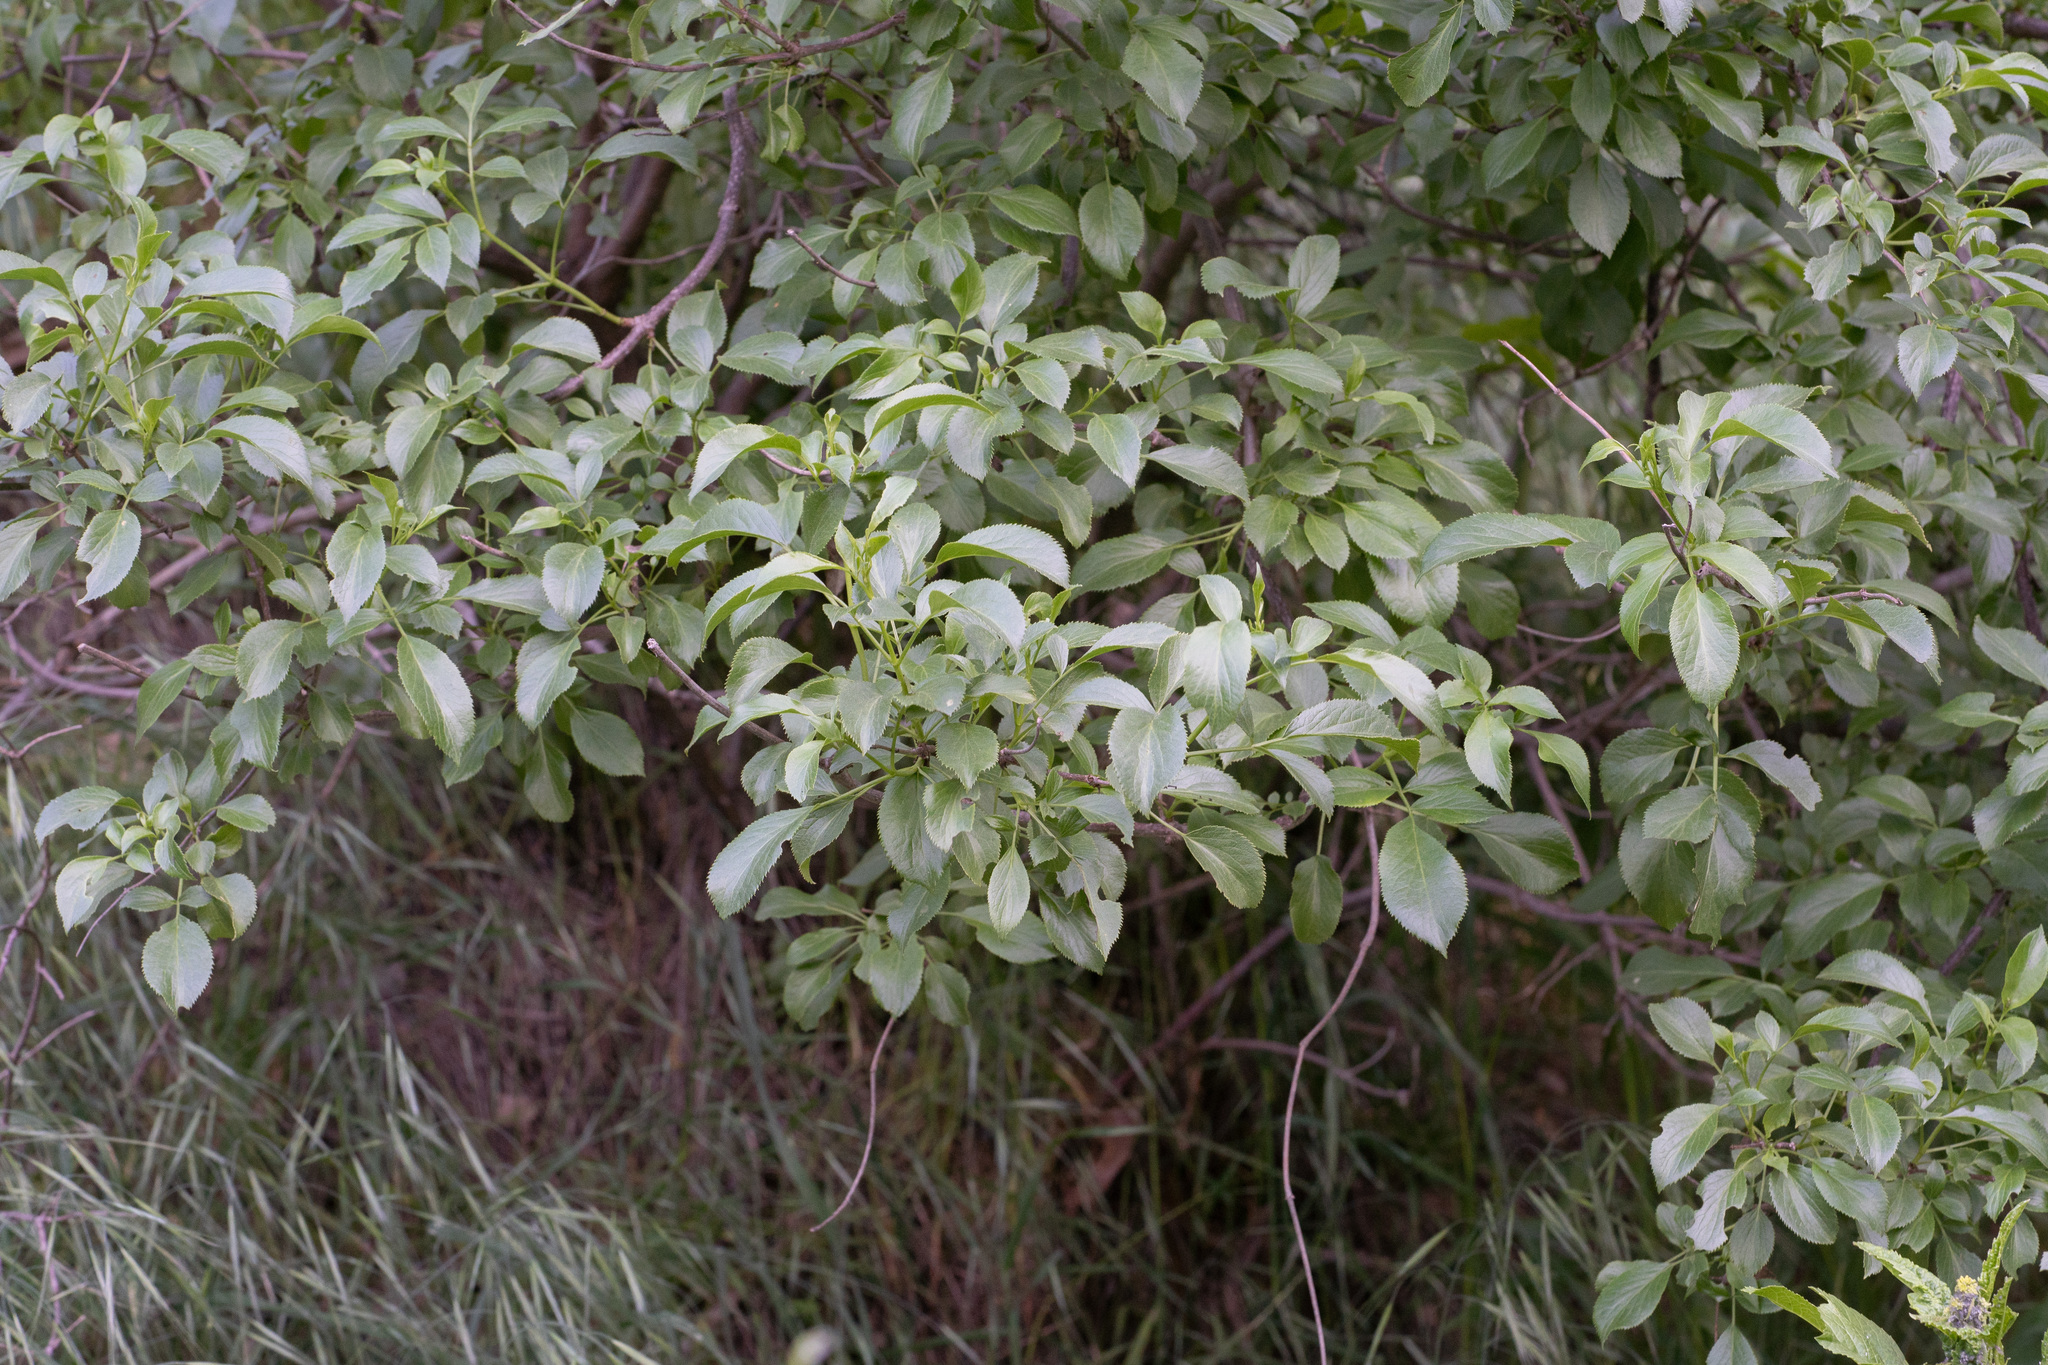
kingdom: Plantae
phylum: Tracheophyta
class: Magnoliopsida
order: Dipsacales
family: Viburnaceae
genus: Sambucus
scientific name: Sambucus cerulea
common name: Blue elder
